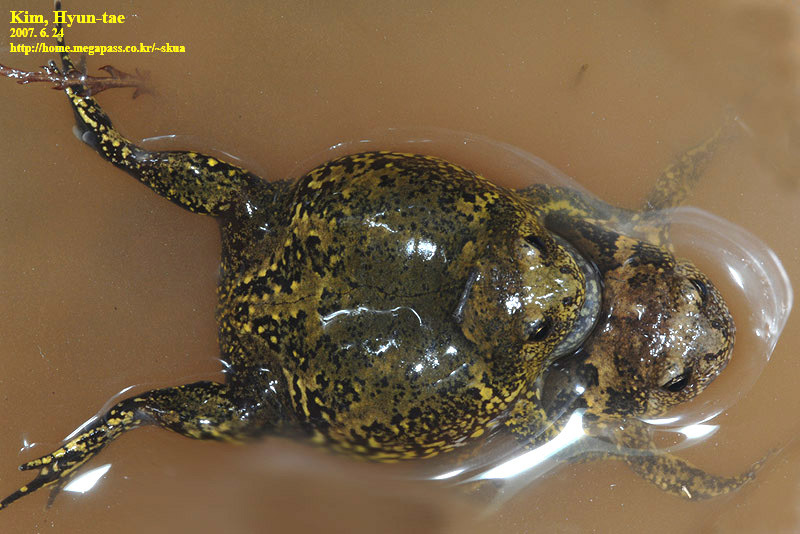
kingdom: Animalia
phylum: Chordata
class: Amphibia
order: Anura
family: Microhylidae
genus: Kaloula
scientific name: Kaloula borealis
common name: Boreal digging frog
